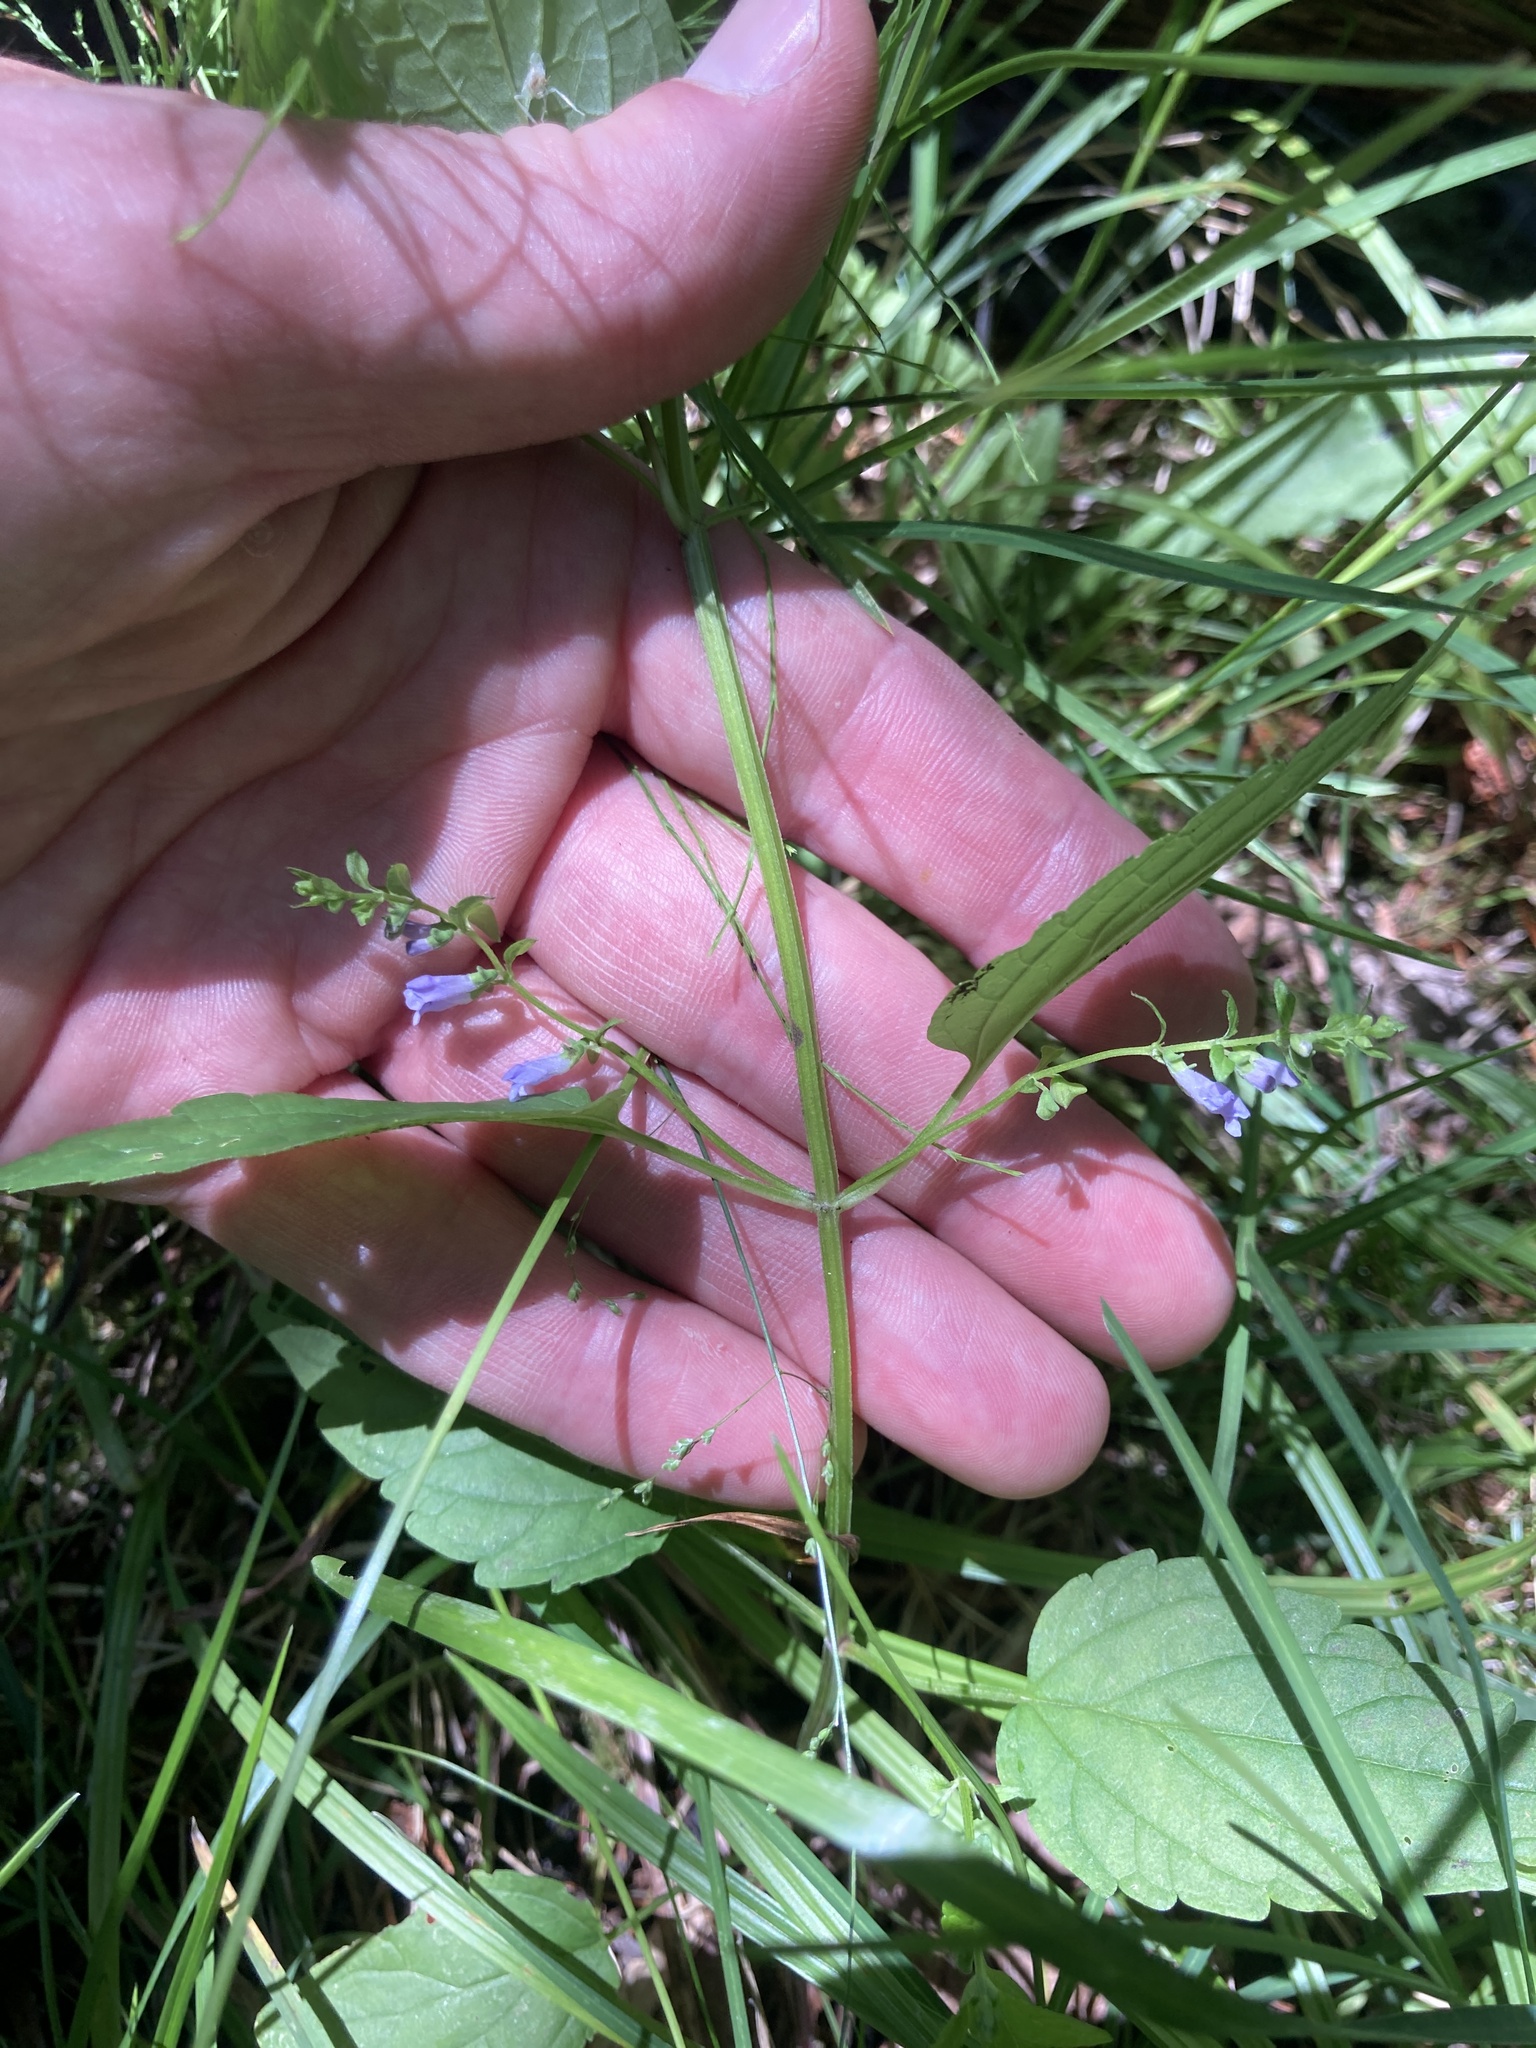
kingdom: Plantae
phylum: Tracheophyta
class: Magnoliopsida
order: Lamiales
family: Lamiaceae
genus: Scutellaria
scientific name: Scutellaria lateriflora
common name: Blue skullcap
